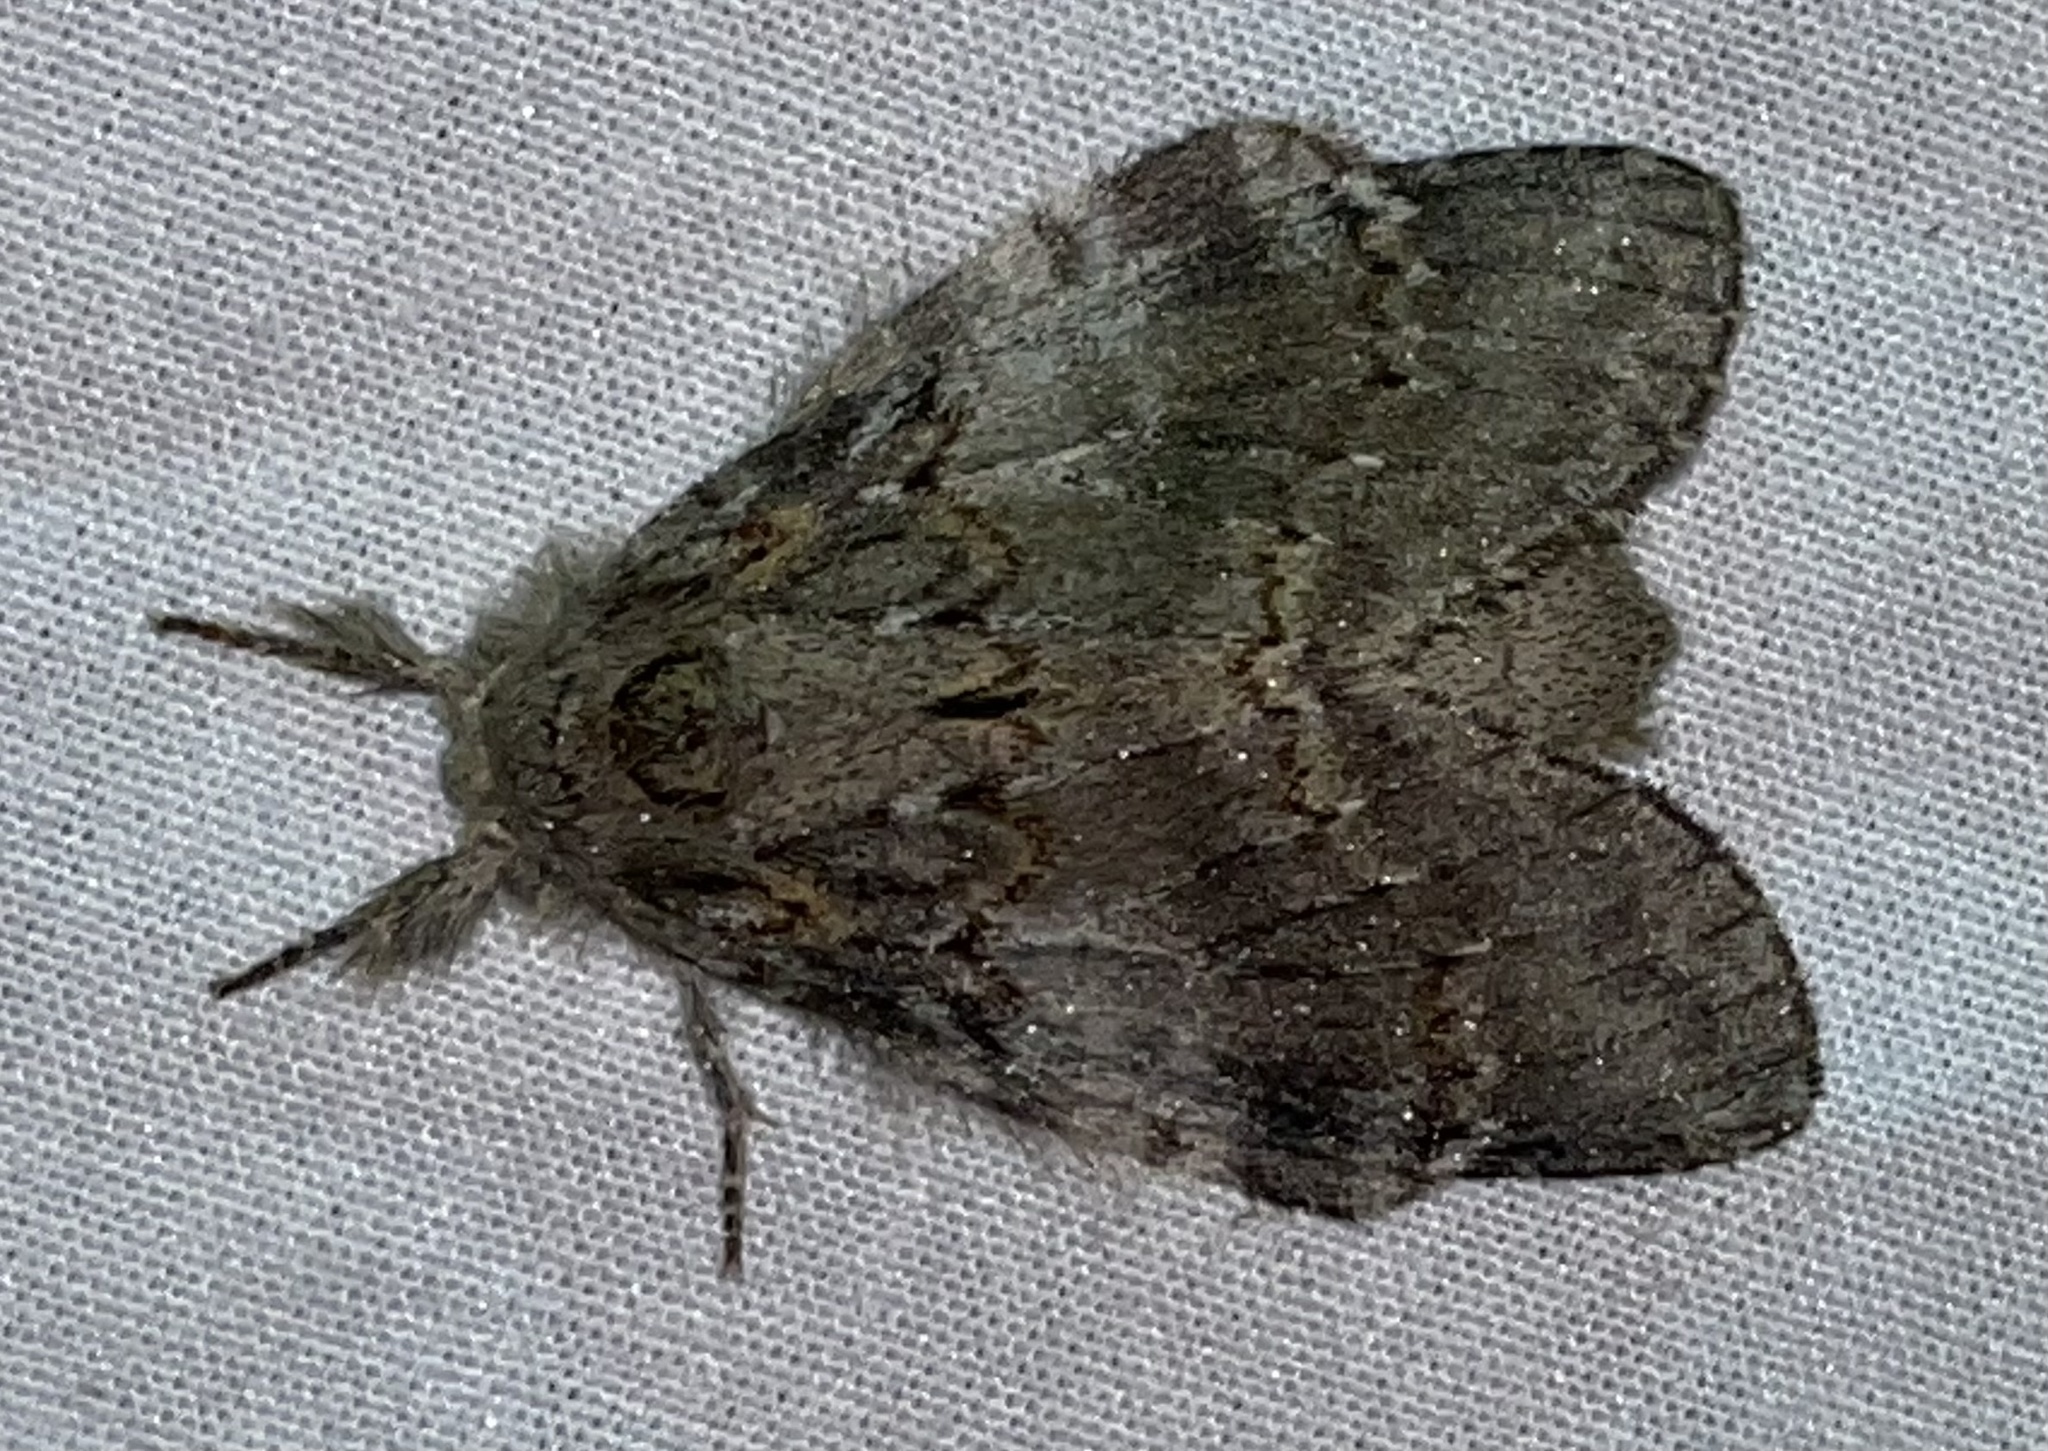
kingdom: Animalia
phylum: Arthropoda
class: Insecta
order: Lepidoptera
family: Notodontidae
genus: Peridea
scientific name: Peridea angulosa
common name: Angulose prominent
